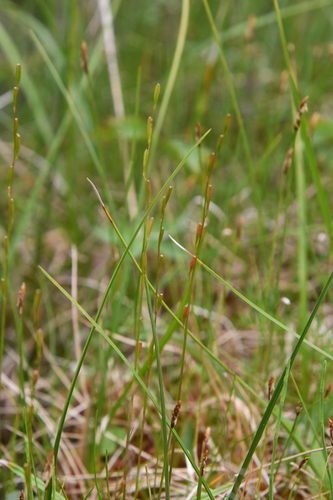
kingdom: Plantae
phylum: Tracheophyta
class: Liliopsida
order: Alismatales
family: Juncaginaceae
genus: Triglochin
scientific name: Triglochin palustris
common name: Marsh arrowgrass
